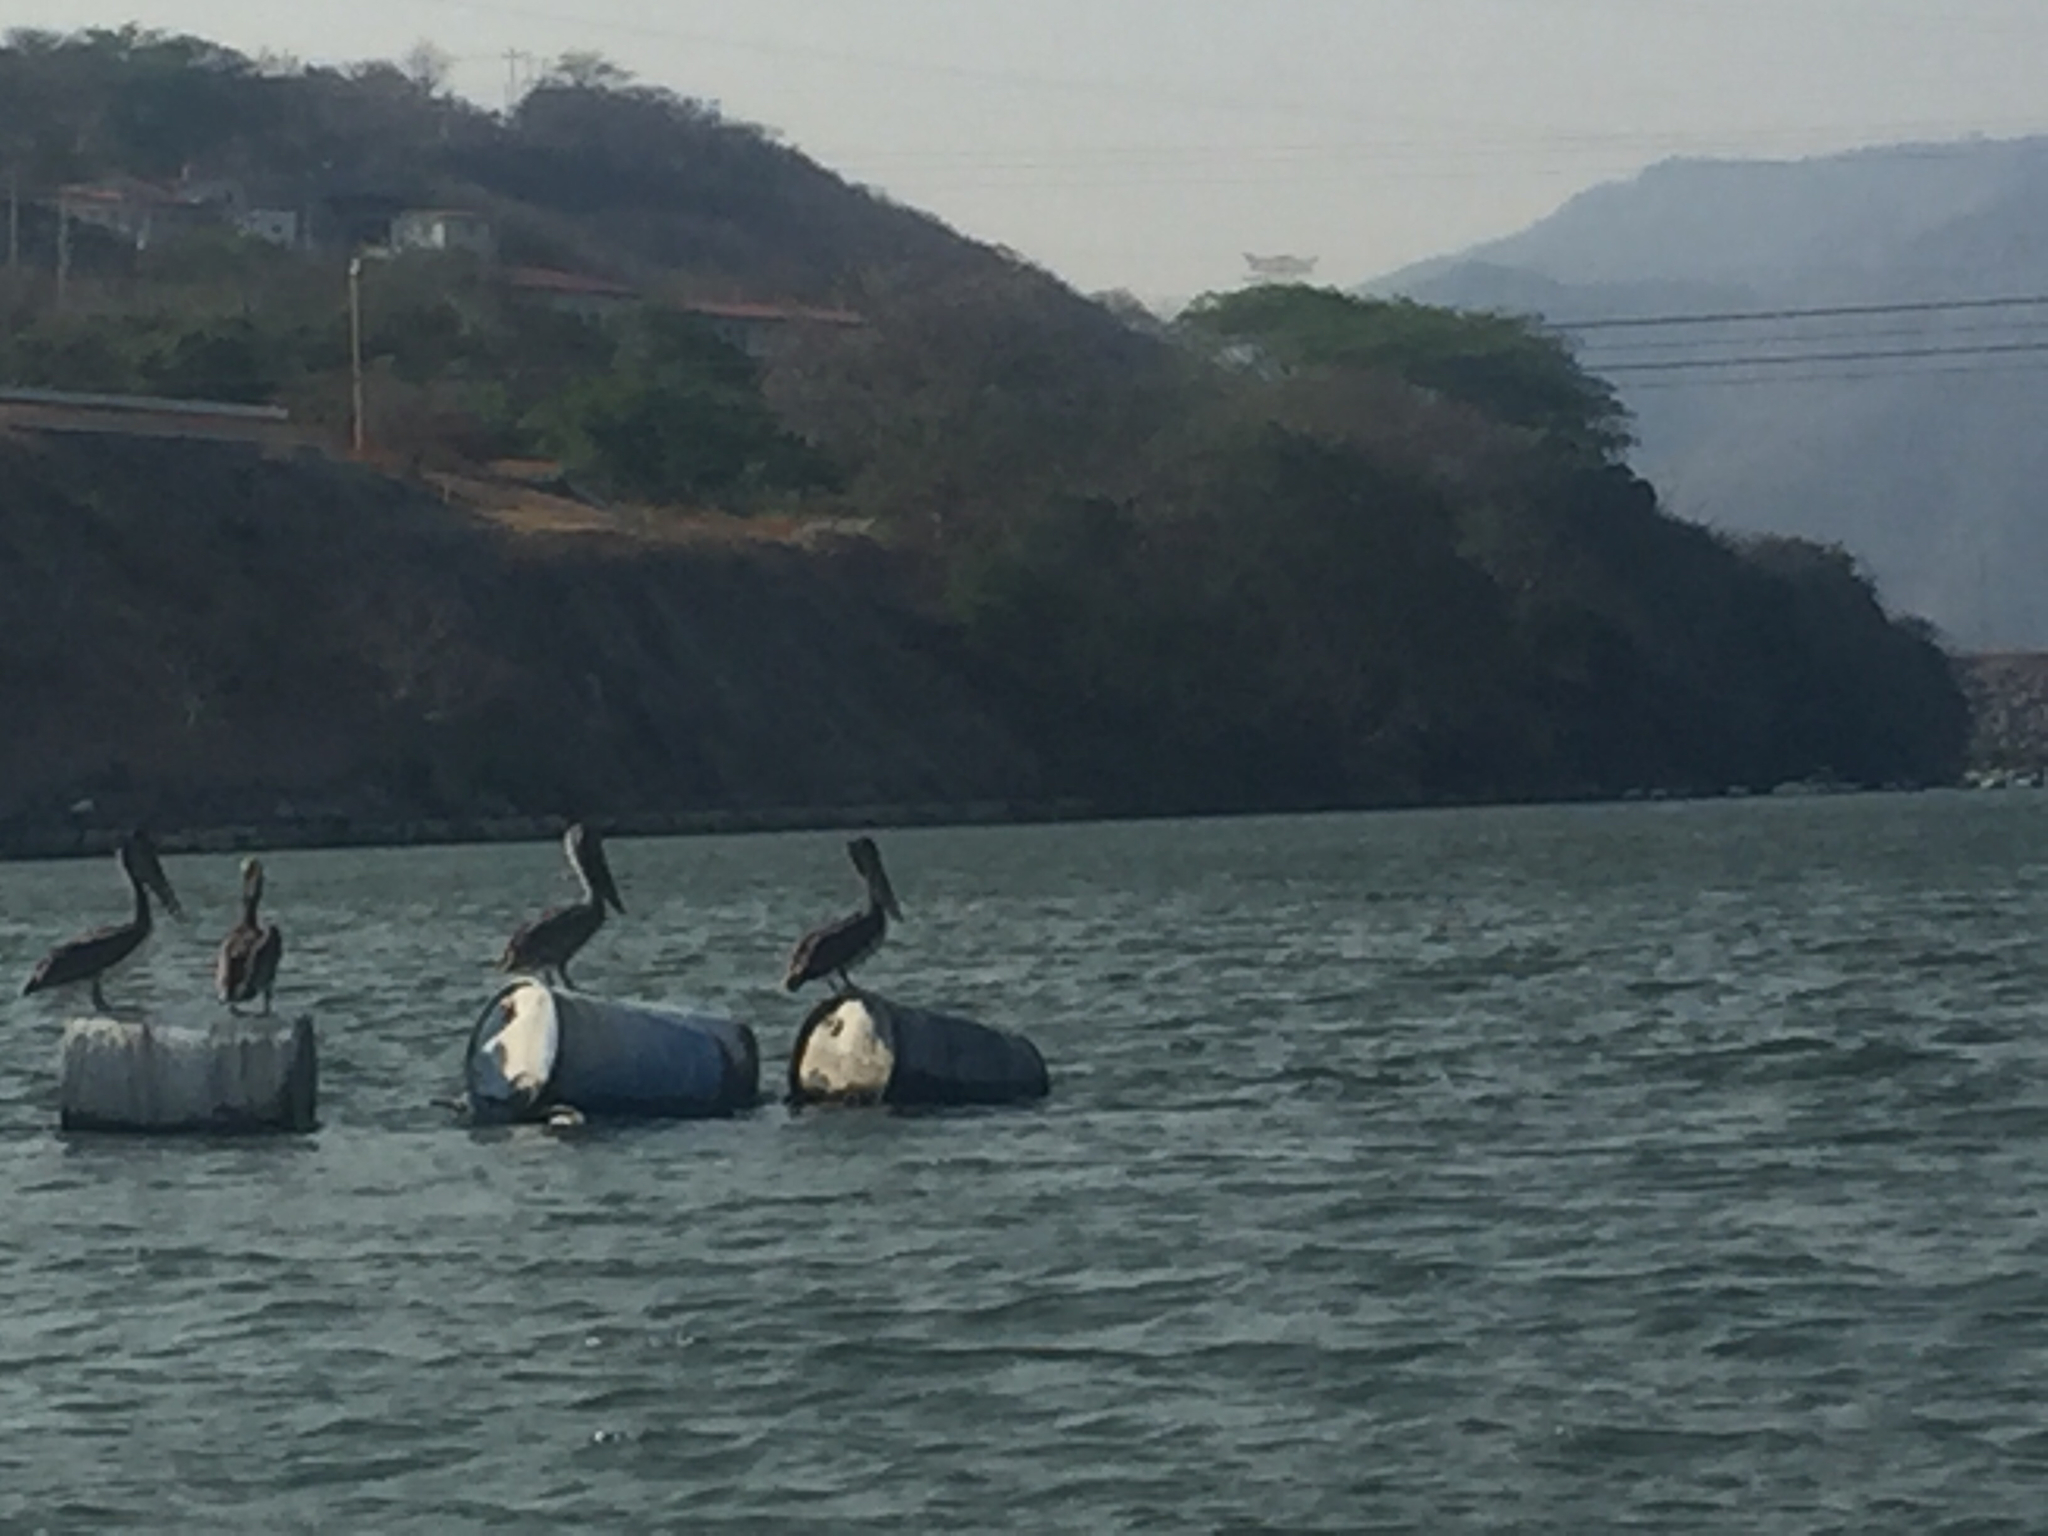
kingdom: Animalia
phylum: Chordata
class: Aves
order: Pelecaniformes
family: Pelecanidae
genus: Pelecanus
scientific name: Pelecanus occidentalis
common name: Brown pelican
